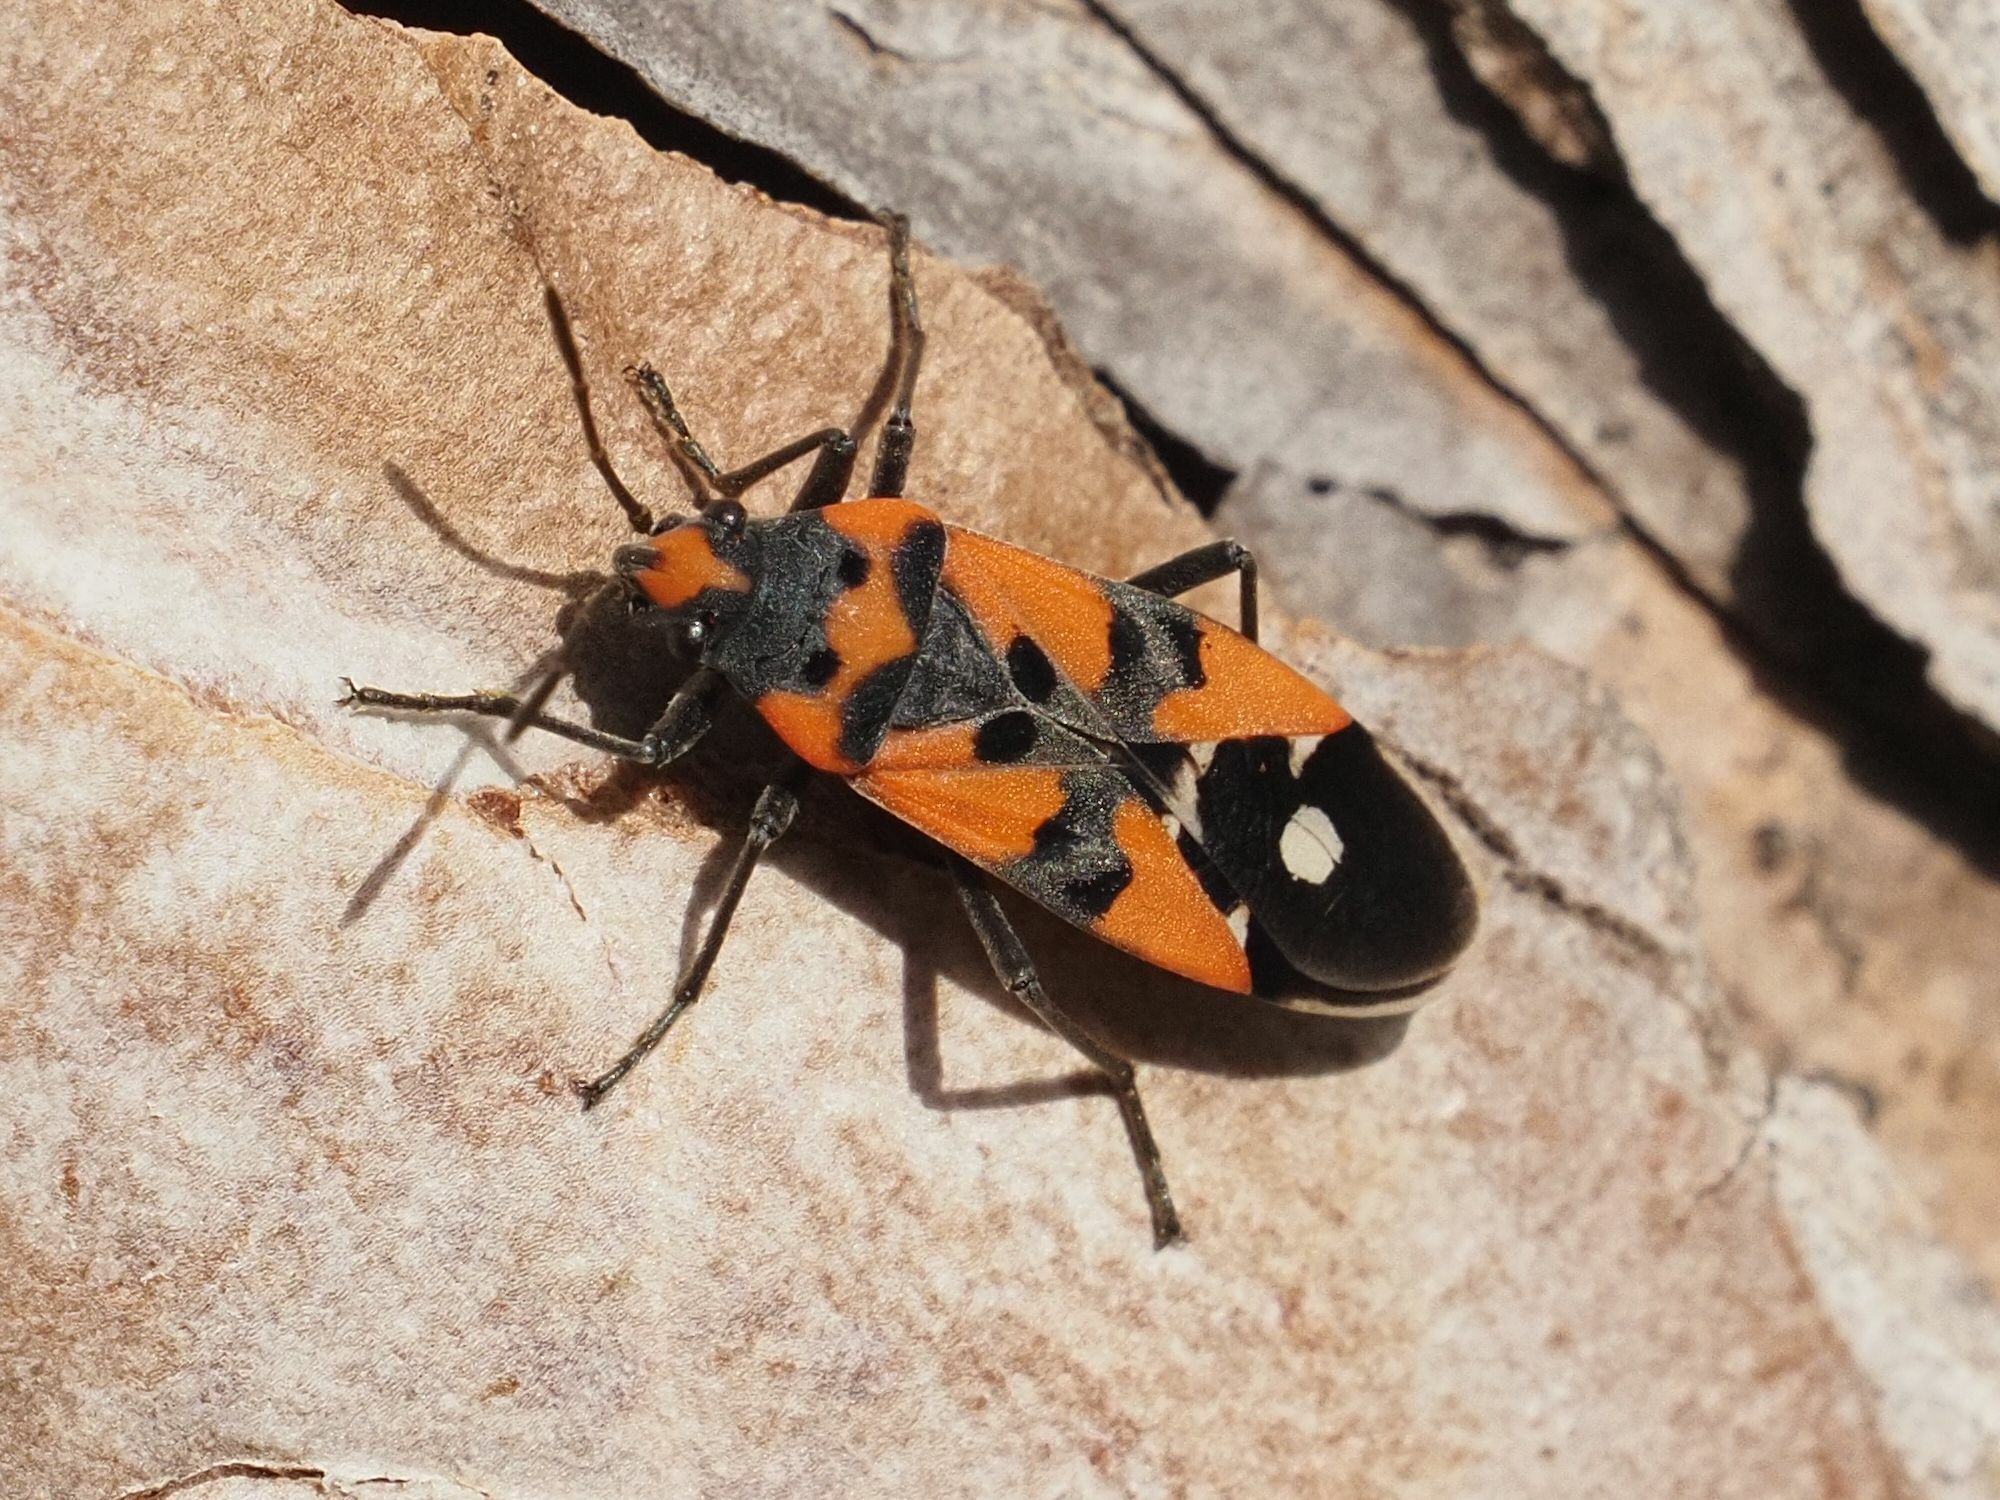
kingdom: Animalia
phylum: Arthropoda
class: Insecta
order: Hemiptera
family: Lygaeidae
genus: Lygaeus
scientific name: Lygaeus equestris
